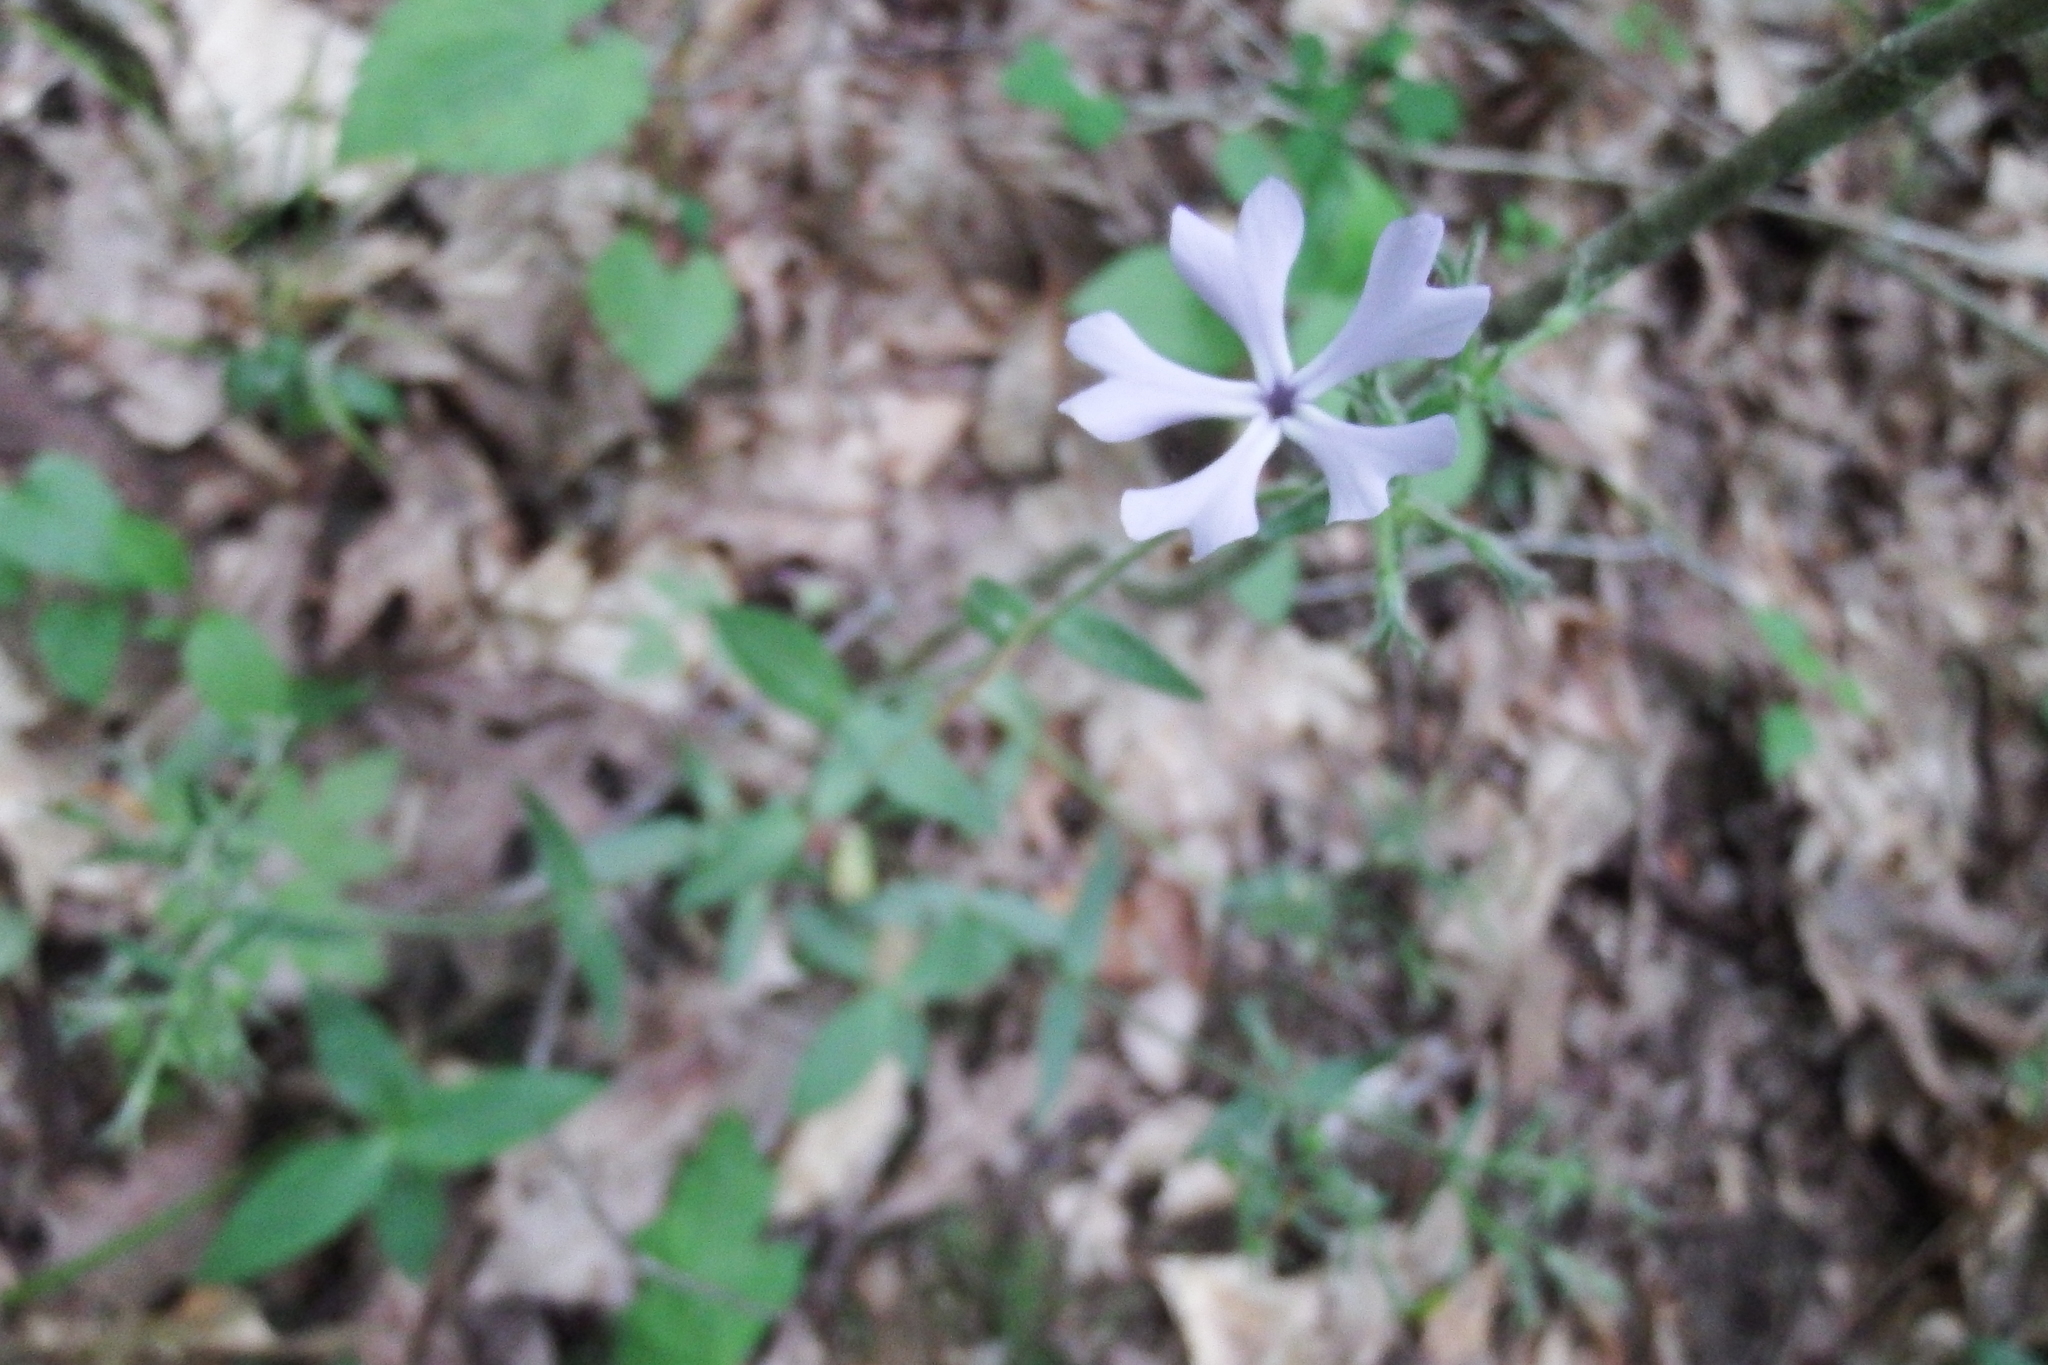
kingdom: Plantae
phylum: Tracheophyta
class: Magnoliopsida
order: Ericales
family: Polemoniaceae
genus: Phlox
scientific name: Phlox divaricata
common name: Blue phlox
